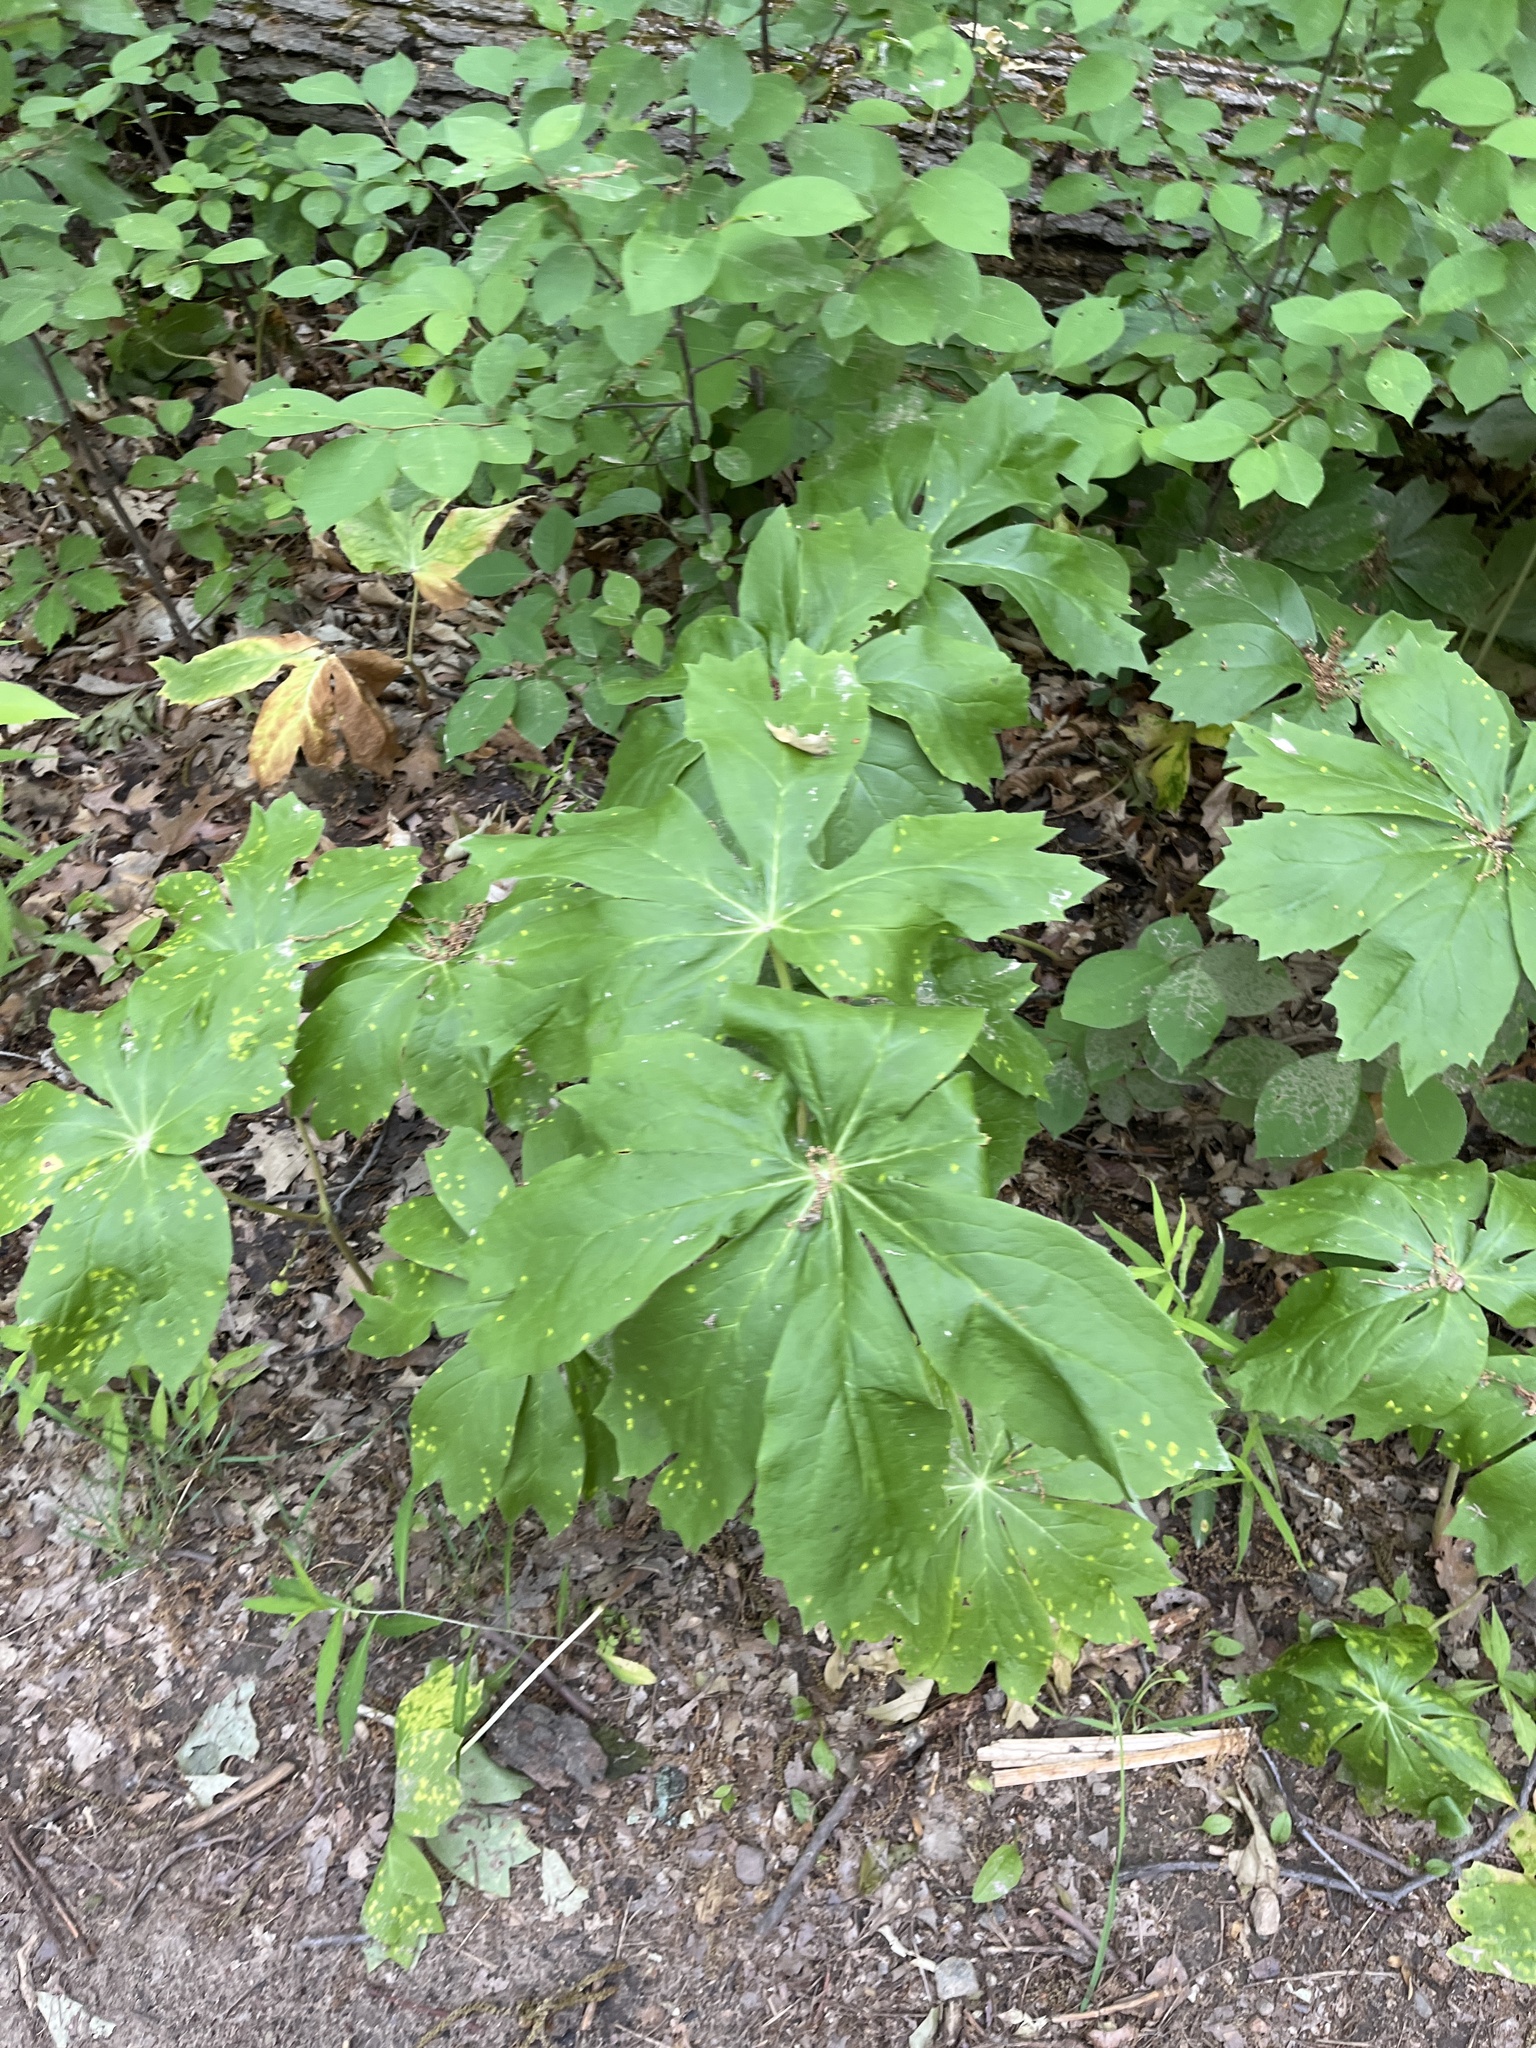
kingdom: Plantae
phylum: Tracheophyta
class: Magnoliopsida
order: Ranunculales
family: Berberidaceae
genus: Podophyllum
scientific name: Podophyllum peltatum
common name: Wild mandrake
